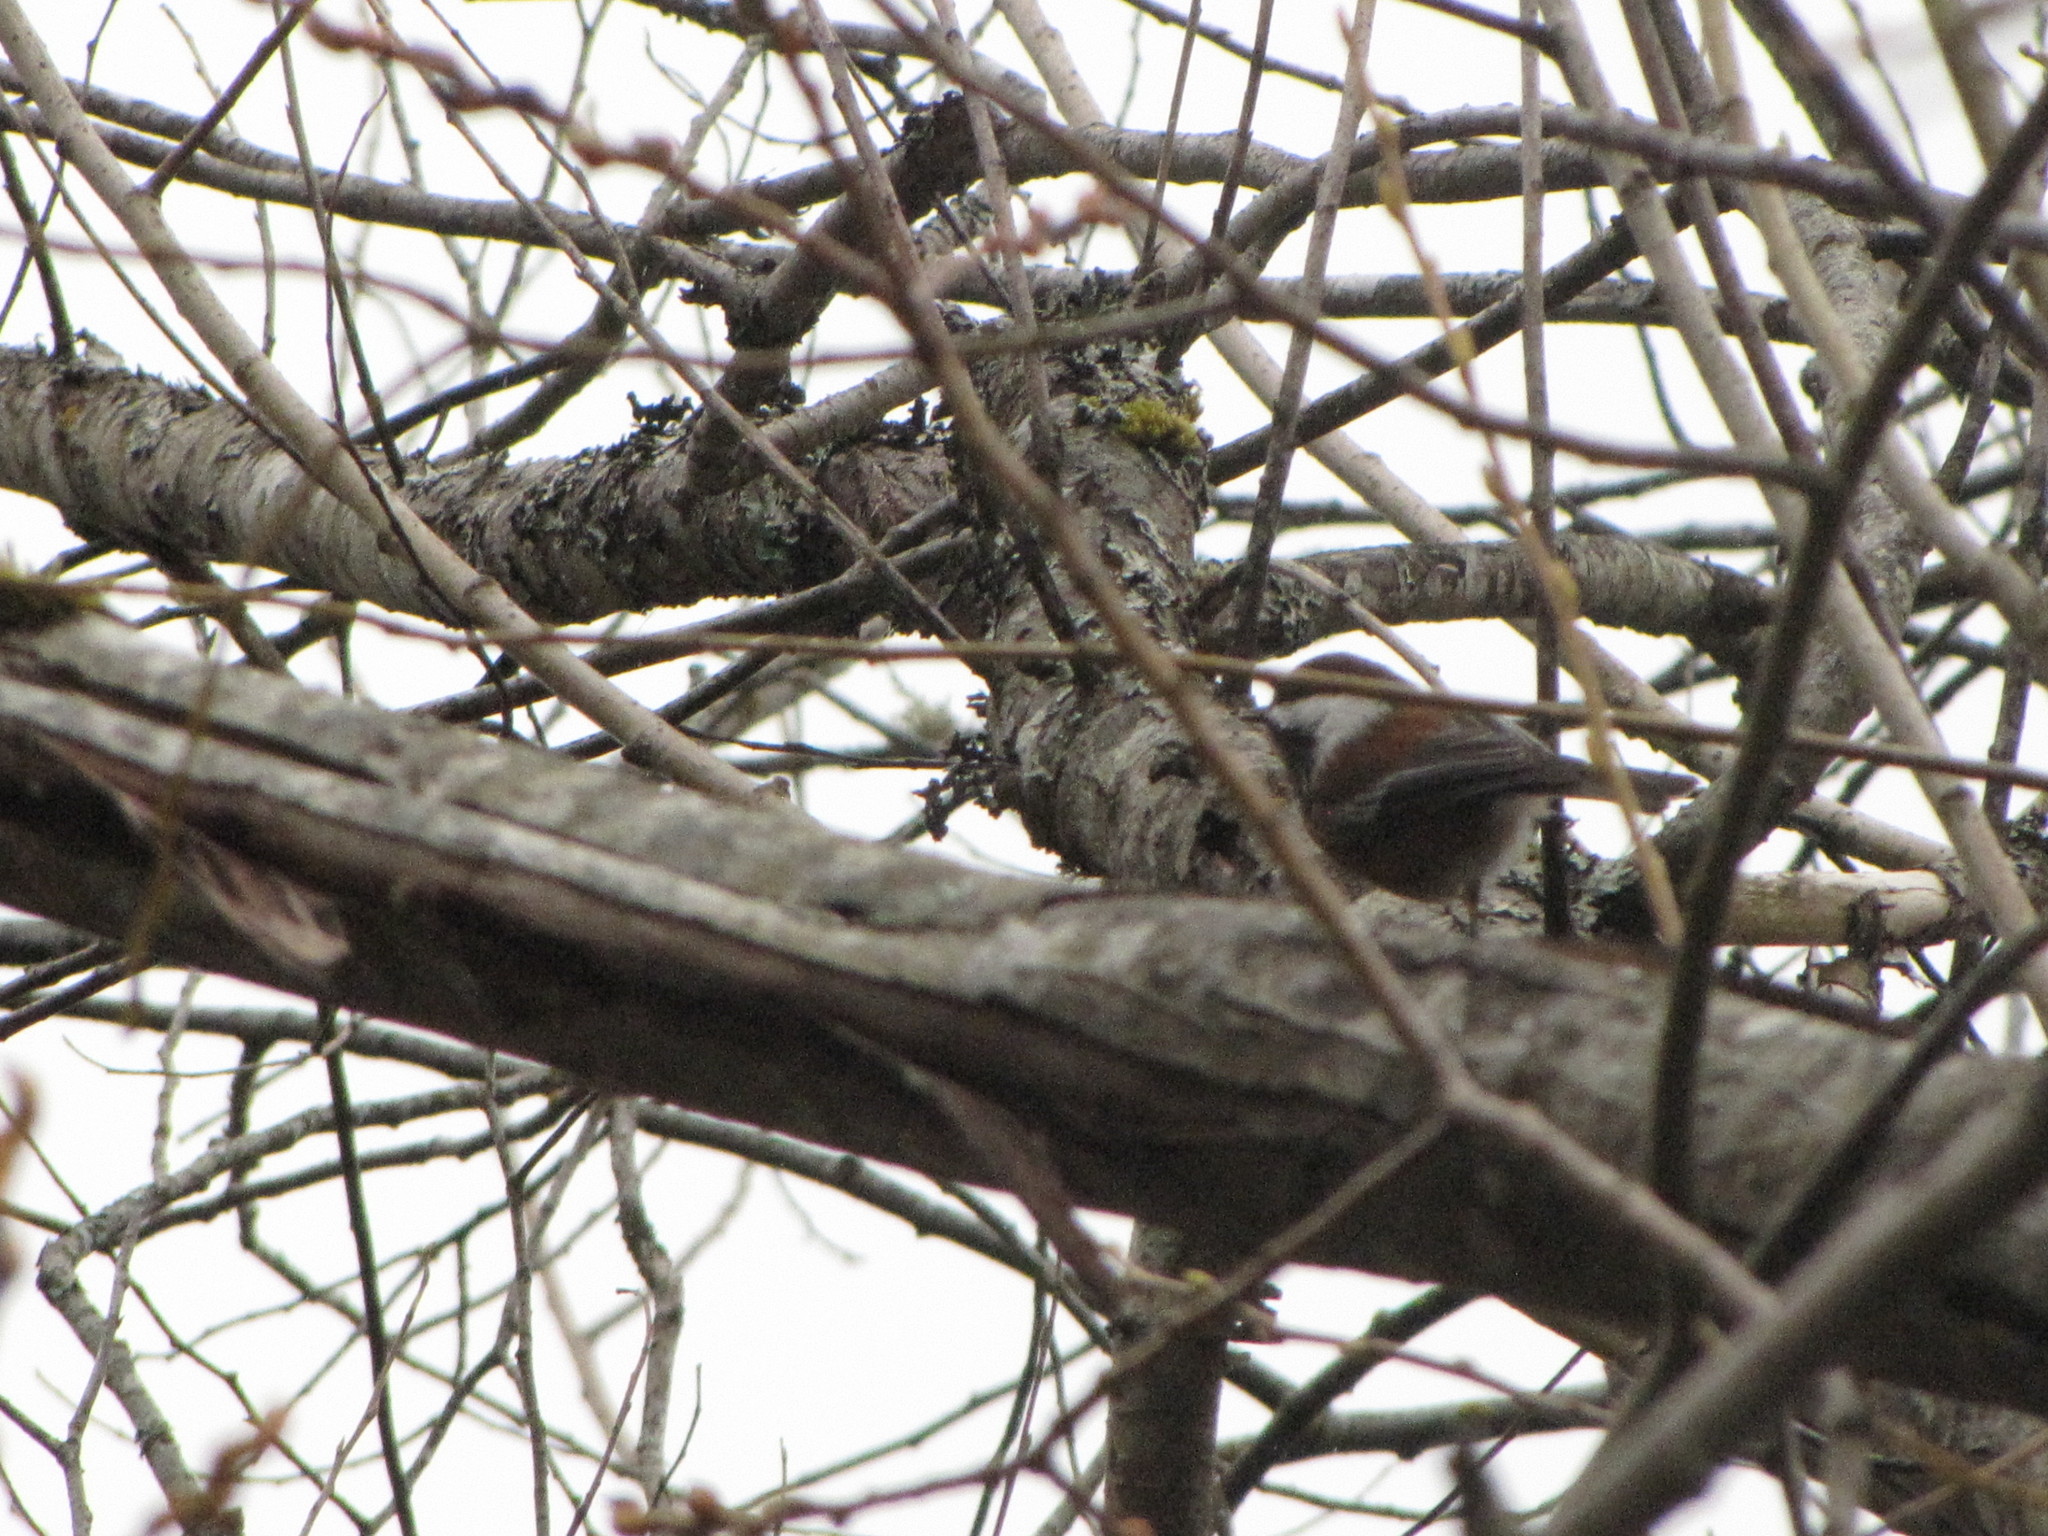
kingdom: Animalia
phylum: Chordata
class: Aves
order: Passeriformes
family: Paridae
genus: Poecile
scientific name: Poecile rufescens
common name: Chestnut-backed chickadee
